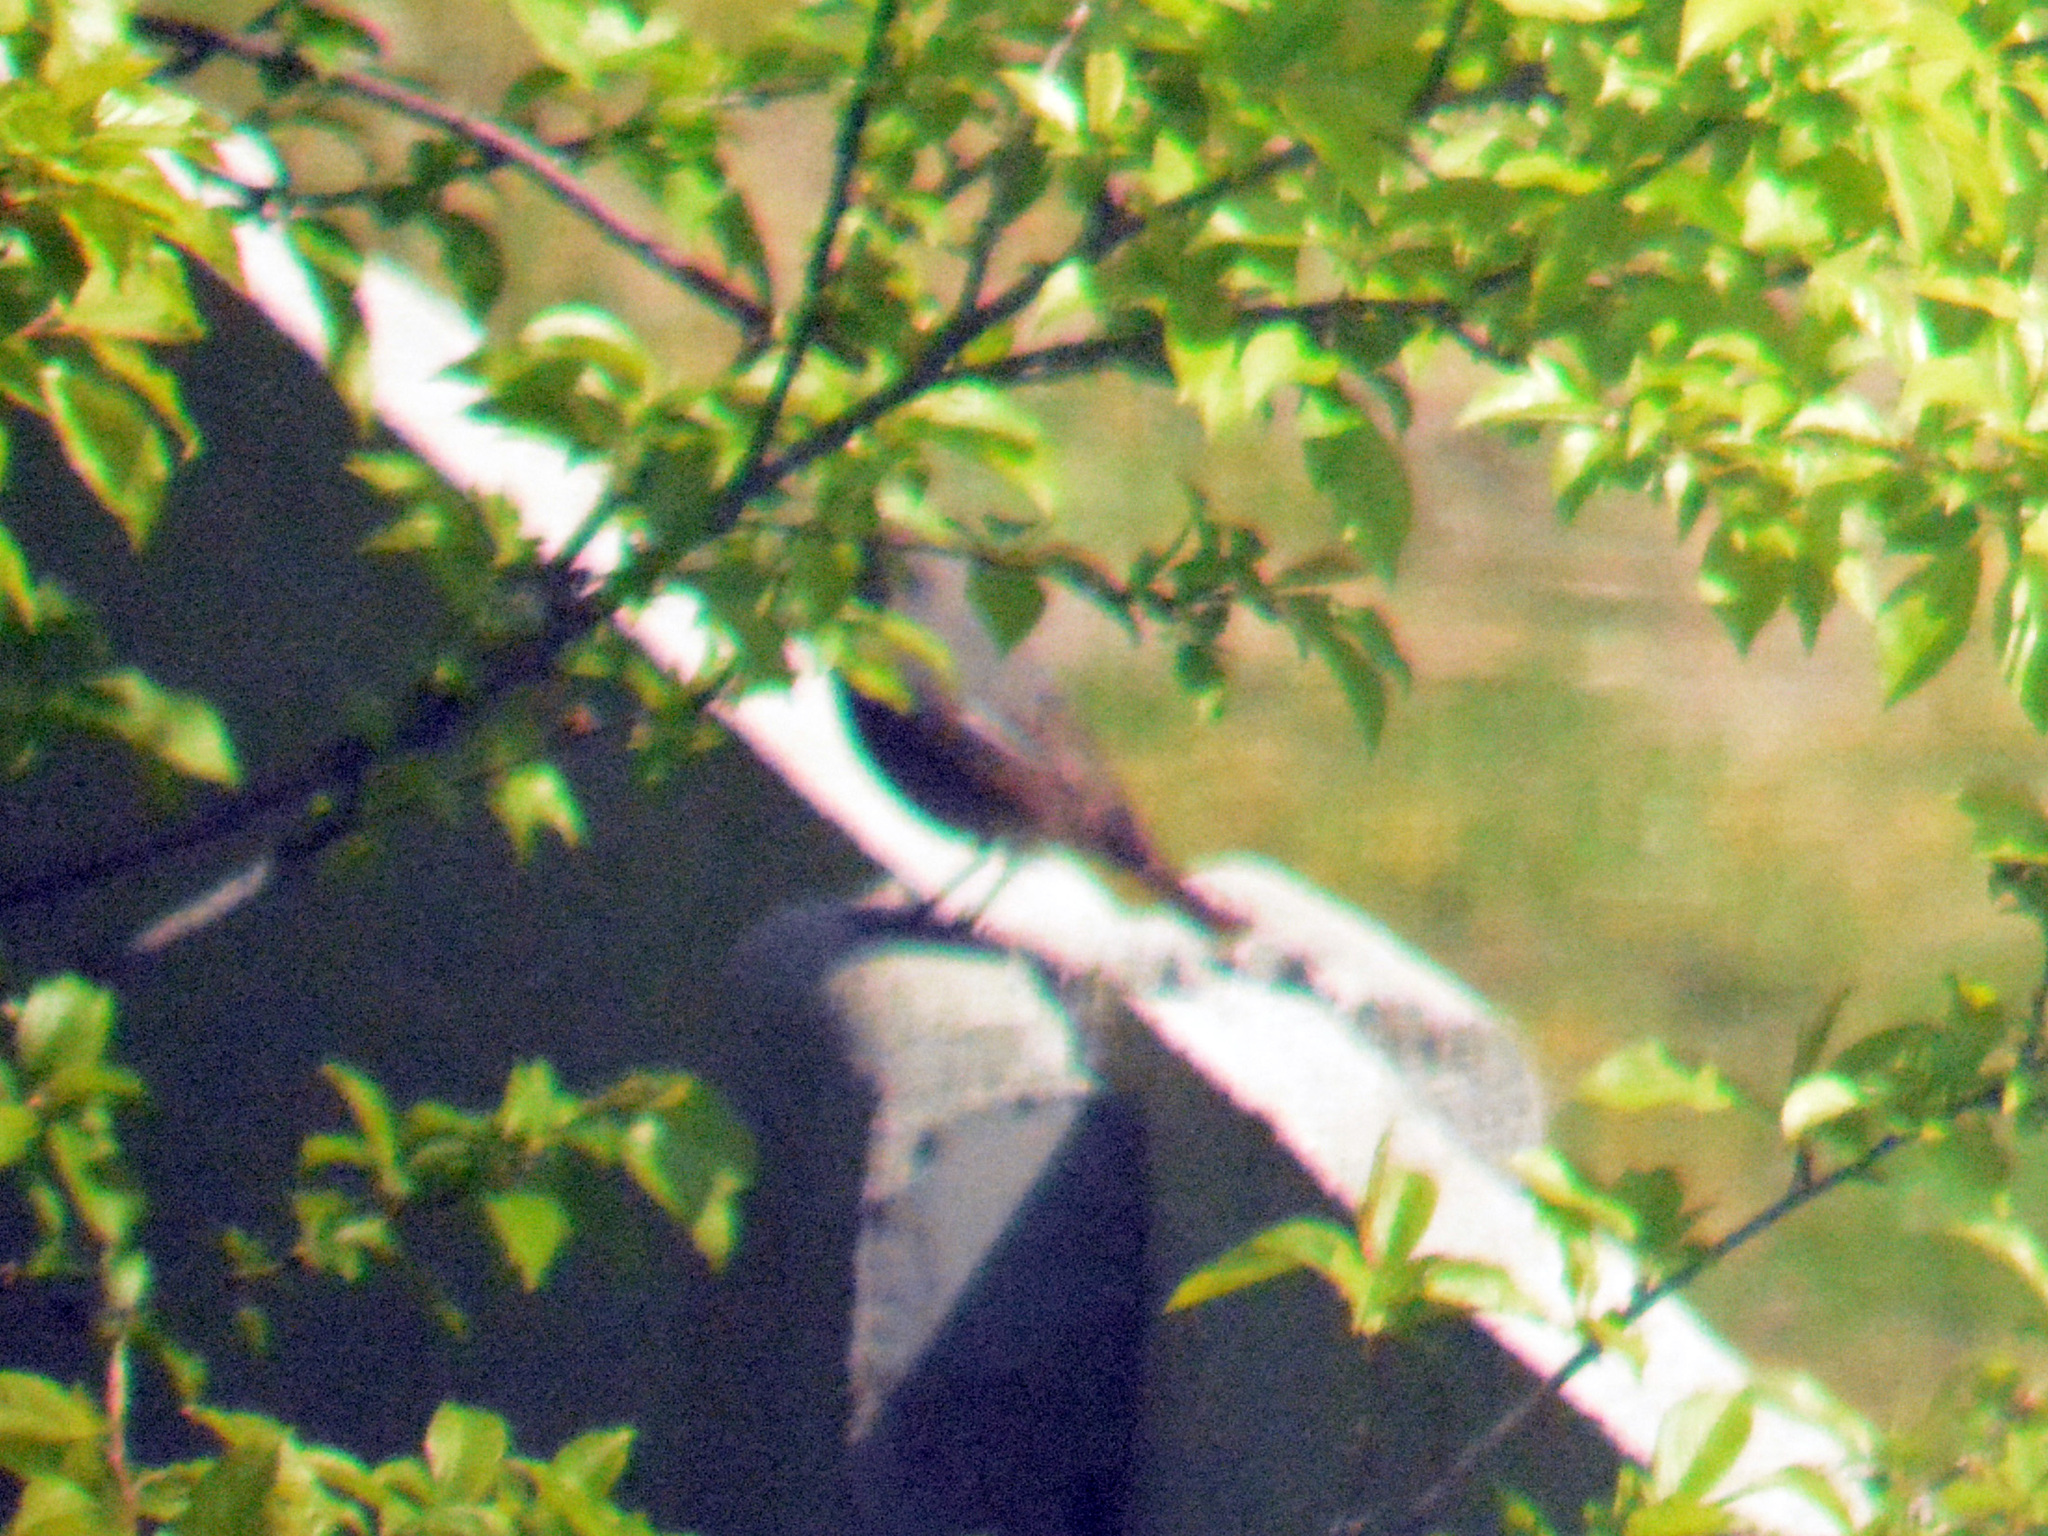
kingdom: Animalia
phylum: Chordata
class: Aves
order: Passeriformes
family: Muscicapidae
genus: Phoenicurus
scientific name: Phoenicurus ochruros
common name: Black redstart
